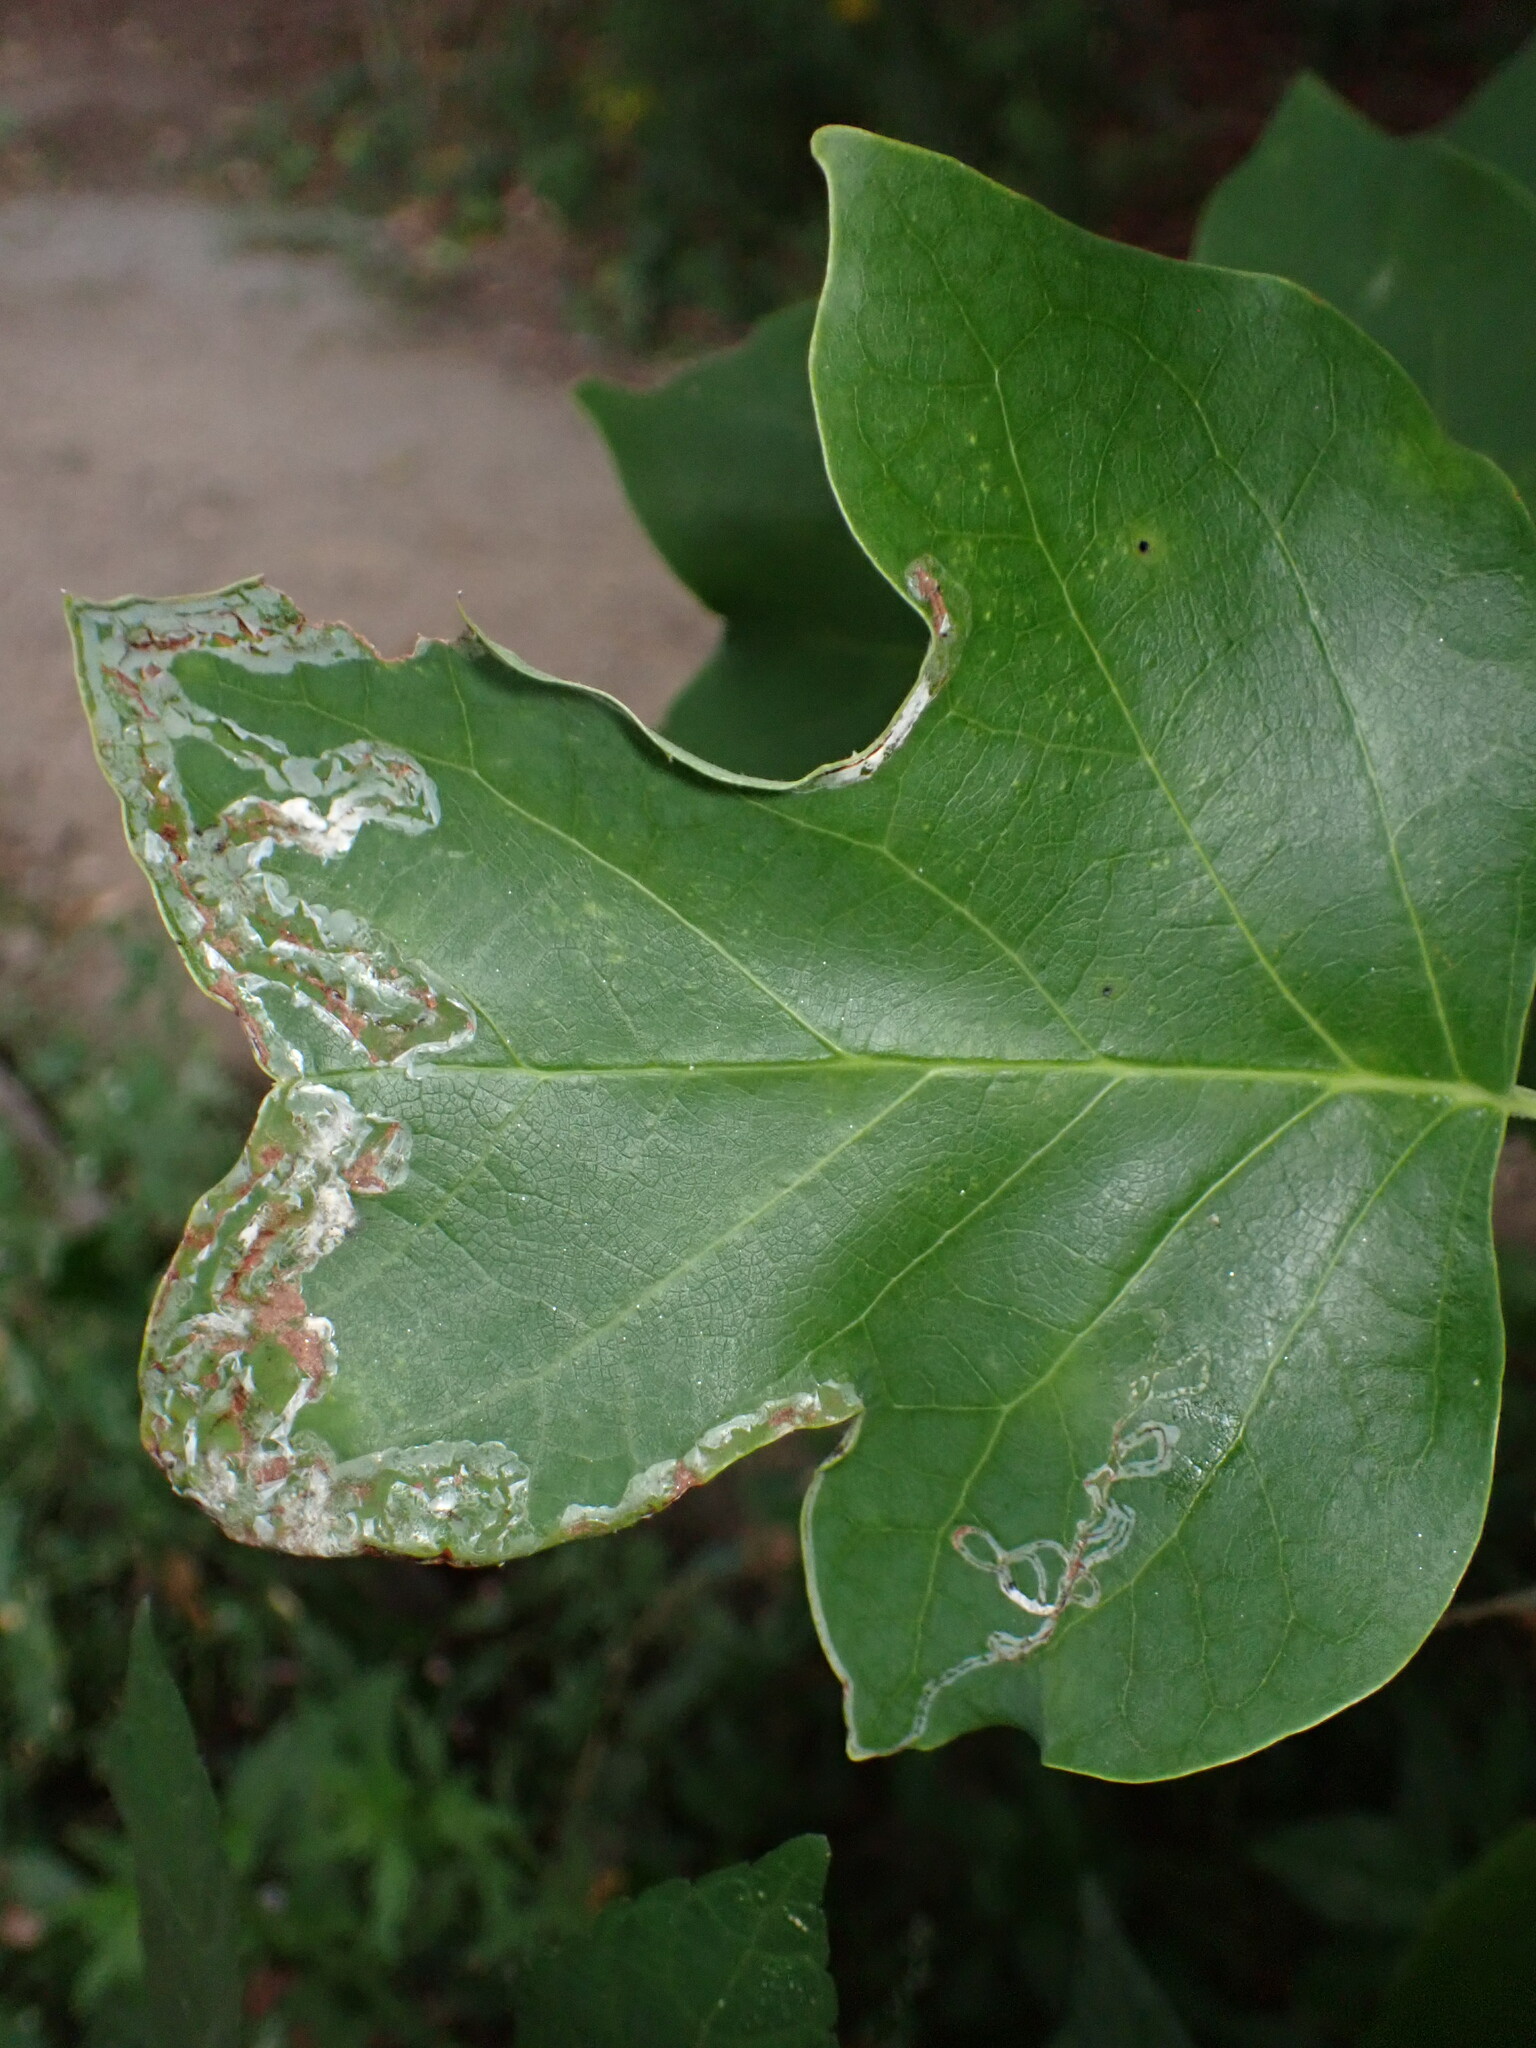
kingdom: Animalia
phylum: Arthropoda
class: Insecta
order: Lepidoptera
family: Gracillariidae
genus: Phyllocnistis
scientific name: Phyllocnistis liriodendronella
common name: Tulip tree leaf miner
